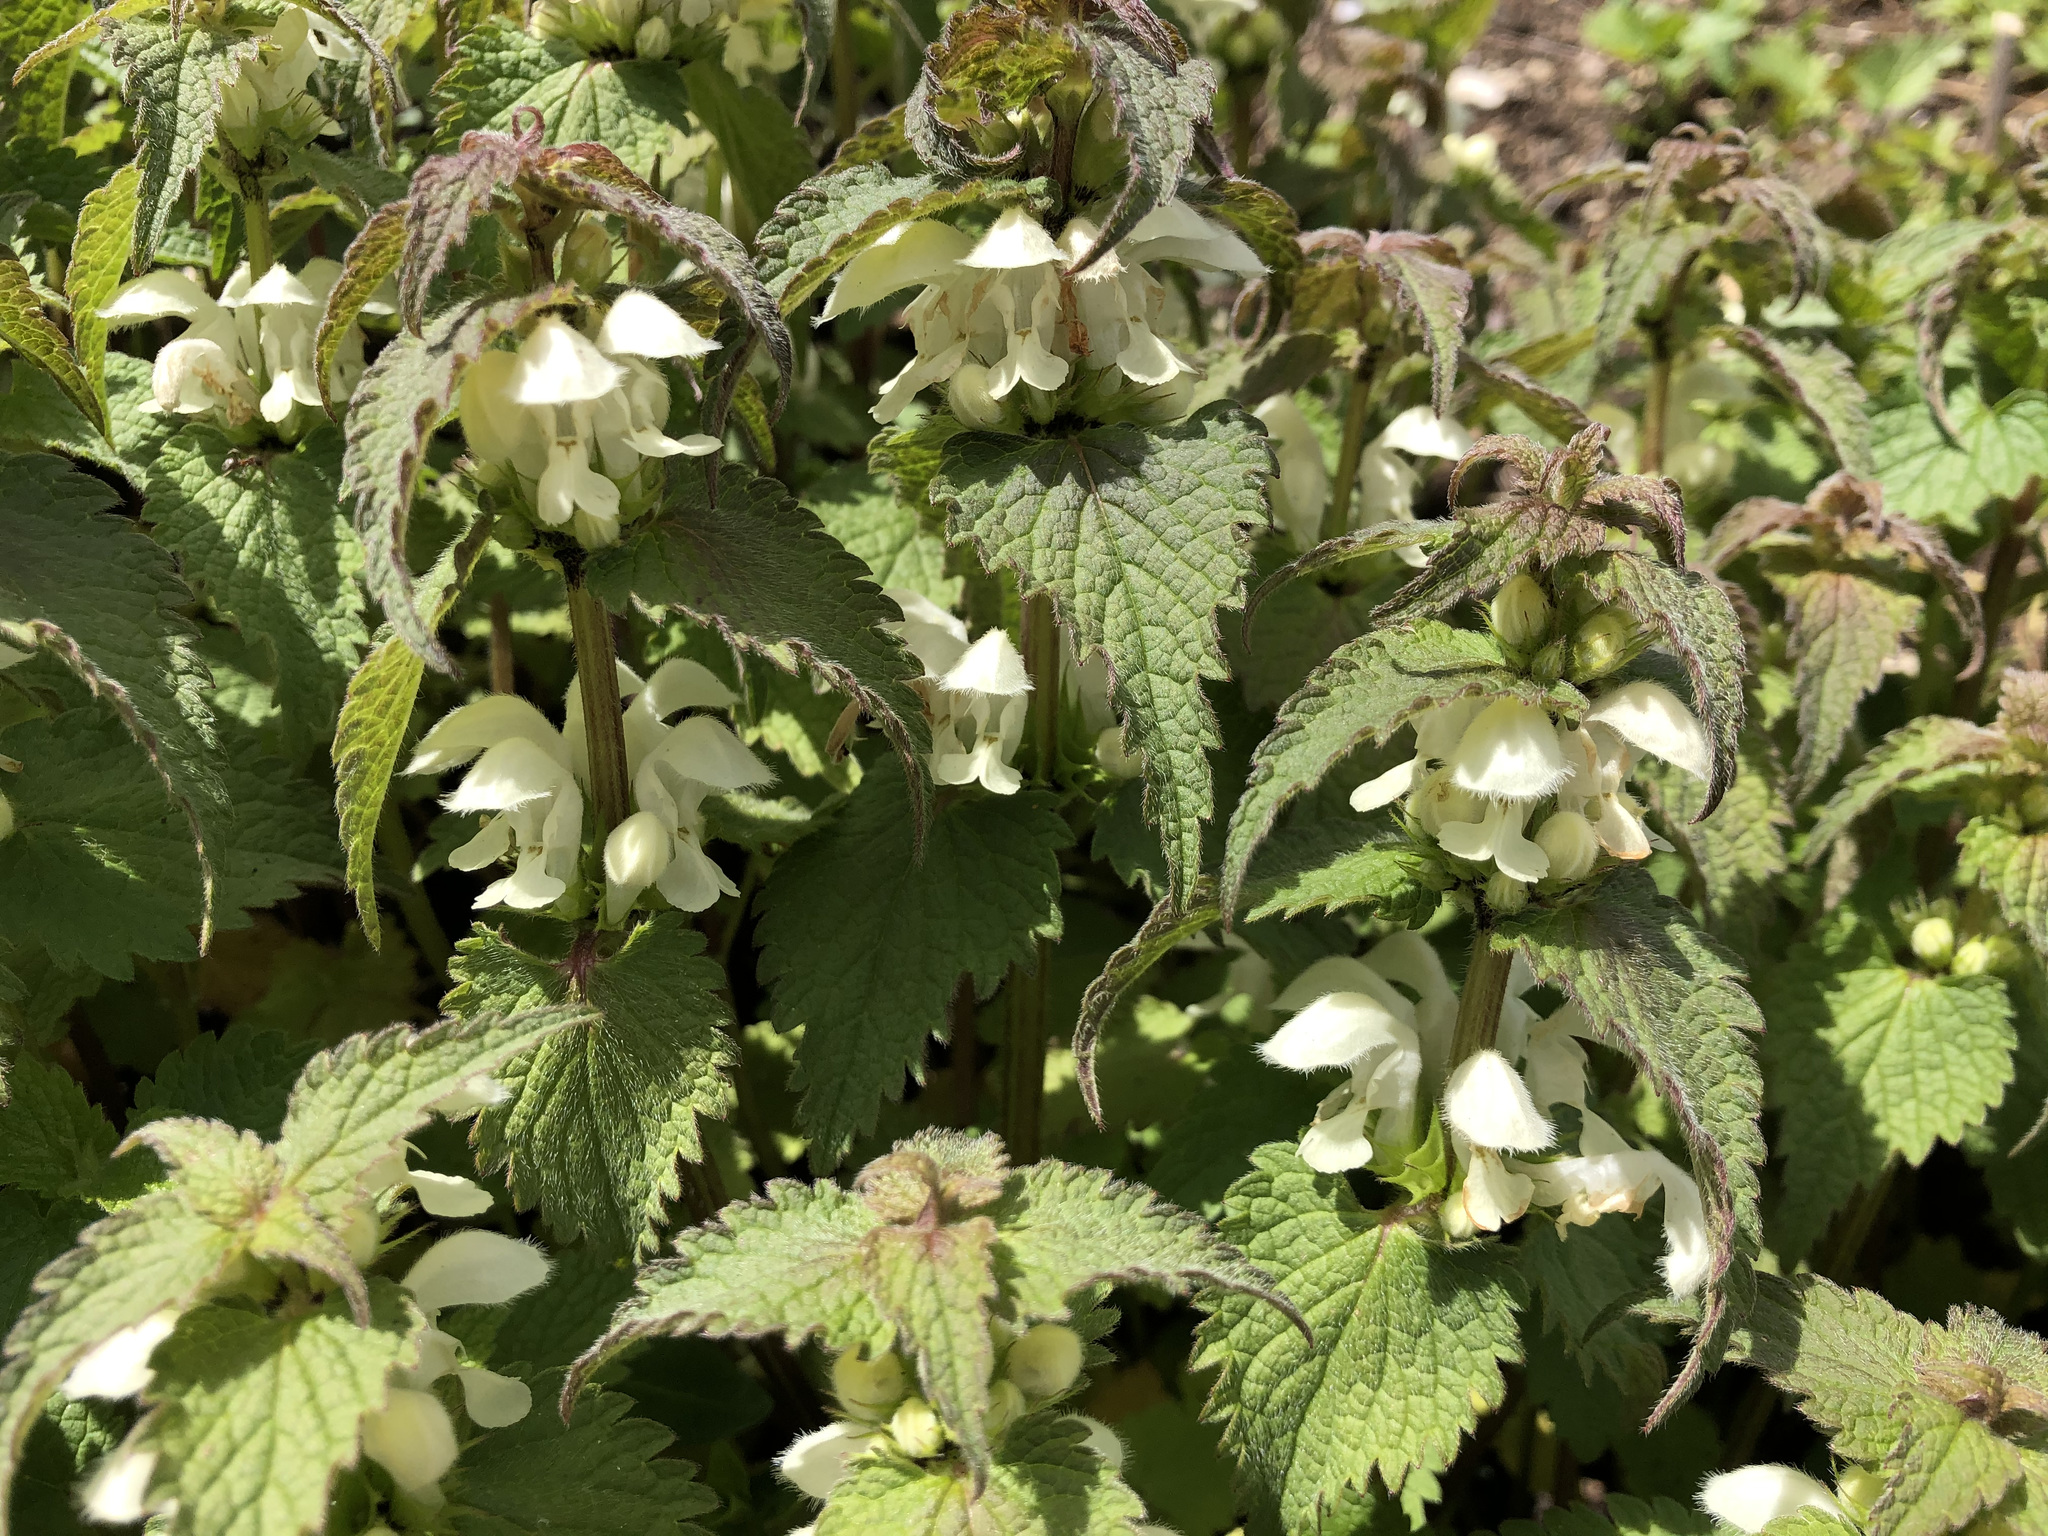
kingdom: Plantae
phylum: Tracheophyta
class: Magnoliopsida
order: Lamiales
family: Lamiaceae
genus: Lamium
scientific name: Lamium album
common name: White dead-nettle
